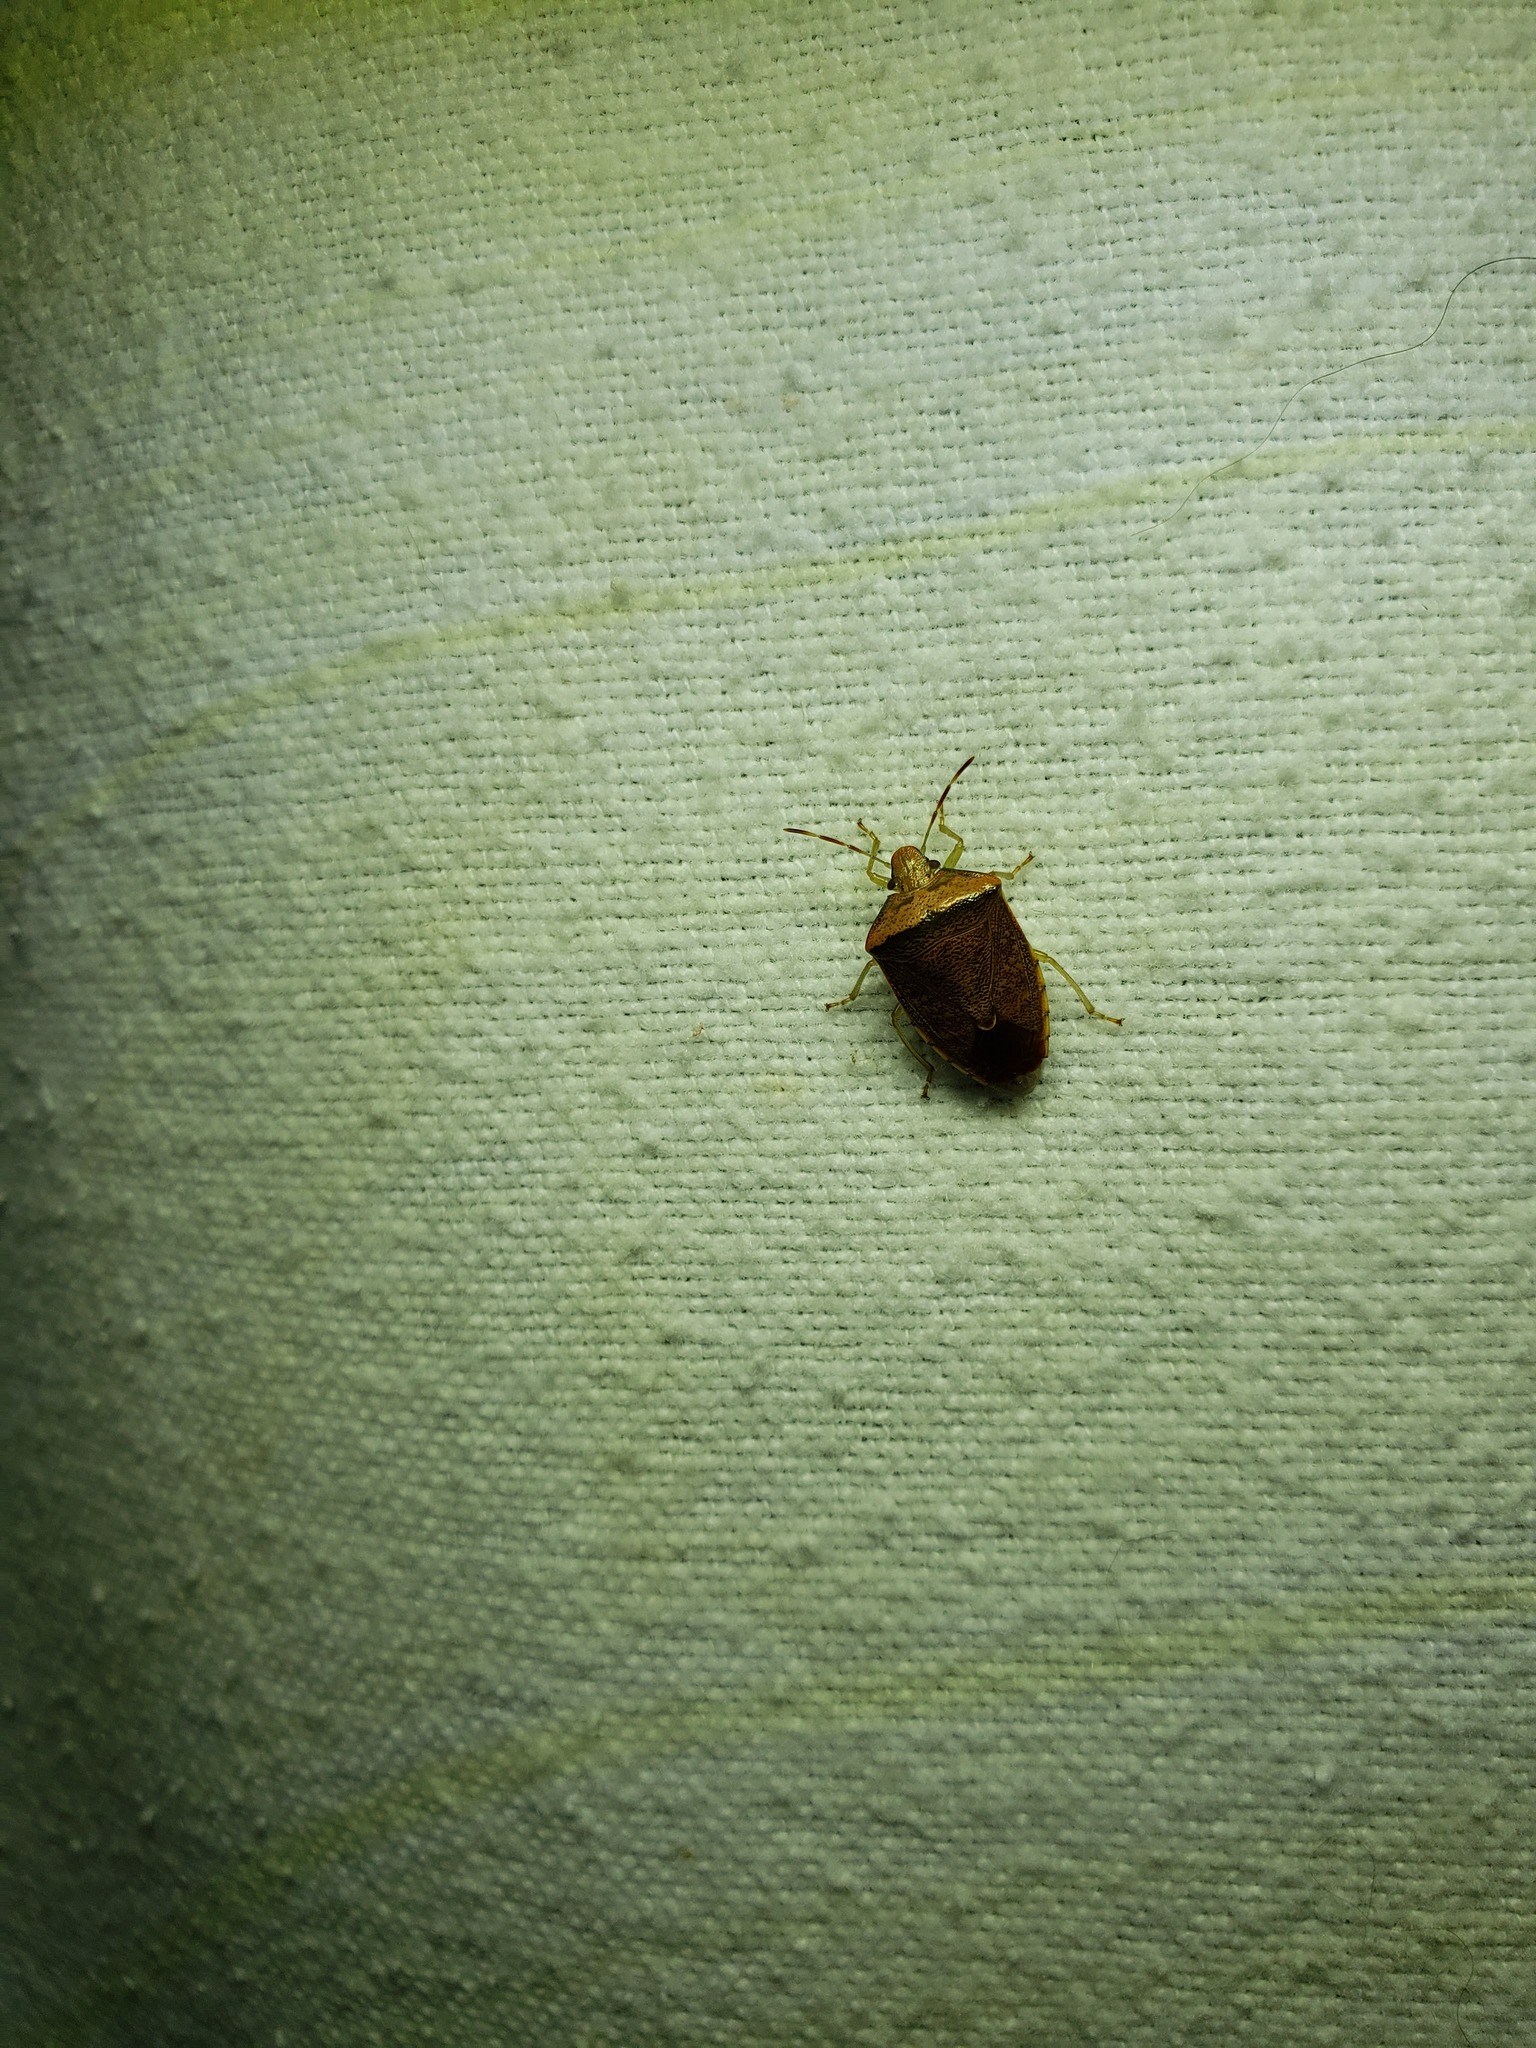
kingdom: Animalia
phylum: Arthropoda
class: Insecta
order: Hemiptera
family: Pentatomidae
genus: Banasa
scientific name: Banasa calva
